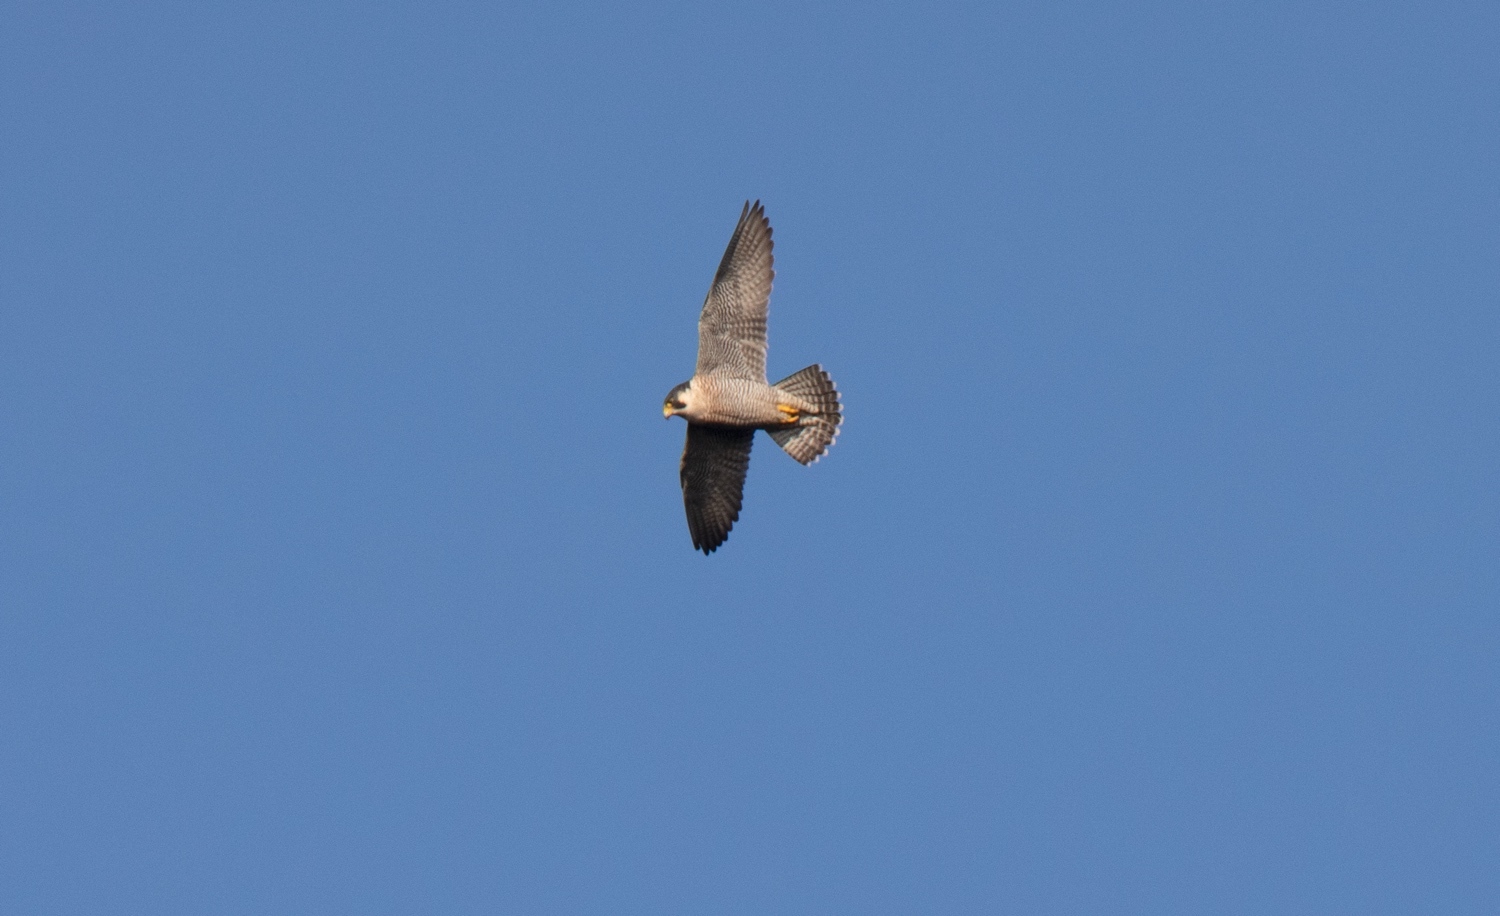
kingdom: Animalia
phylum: Chordata
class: Aves
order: Falconiformes
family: Falconidae
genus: Falco
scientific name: Falco peregrinus
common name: Peregrine falcon
